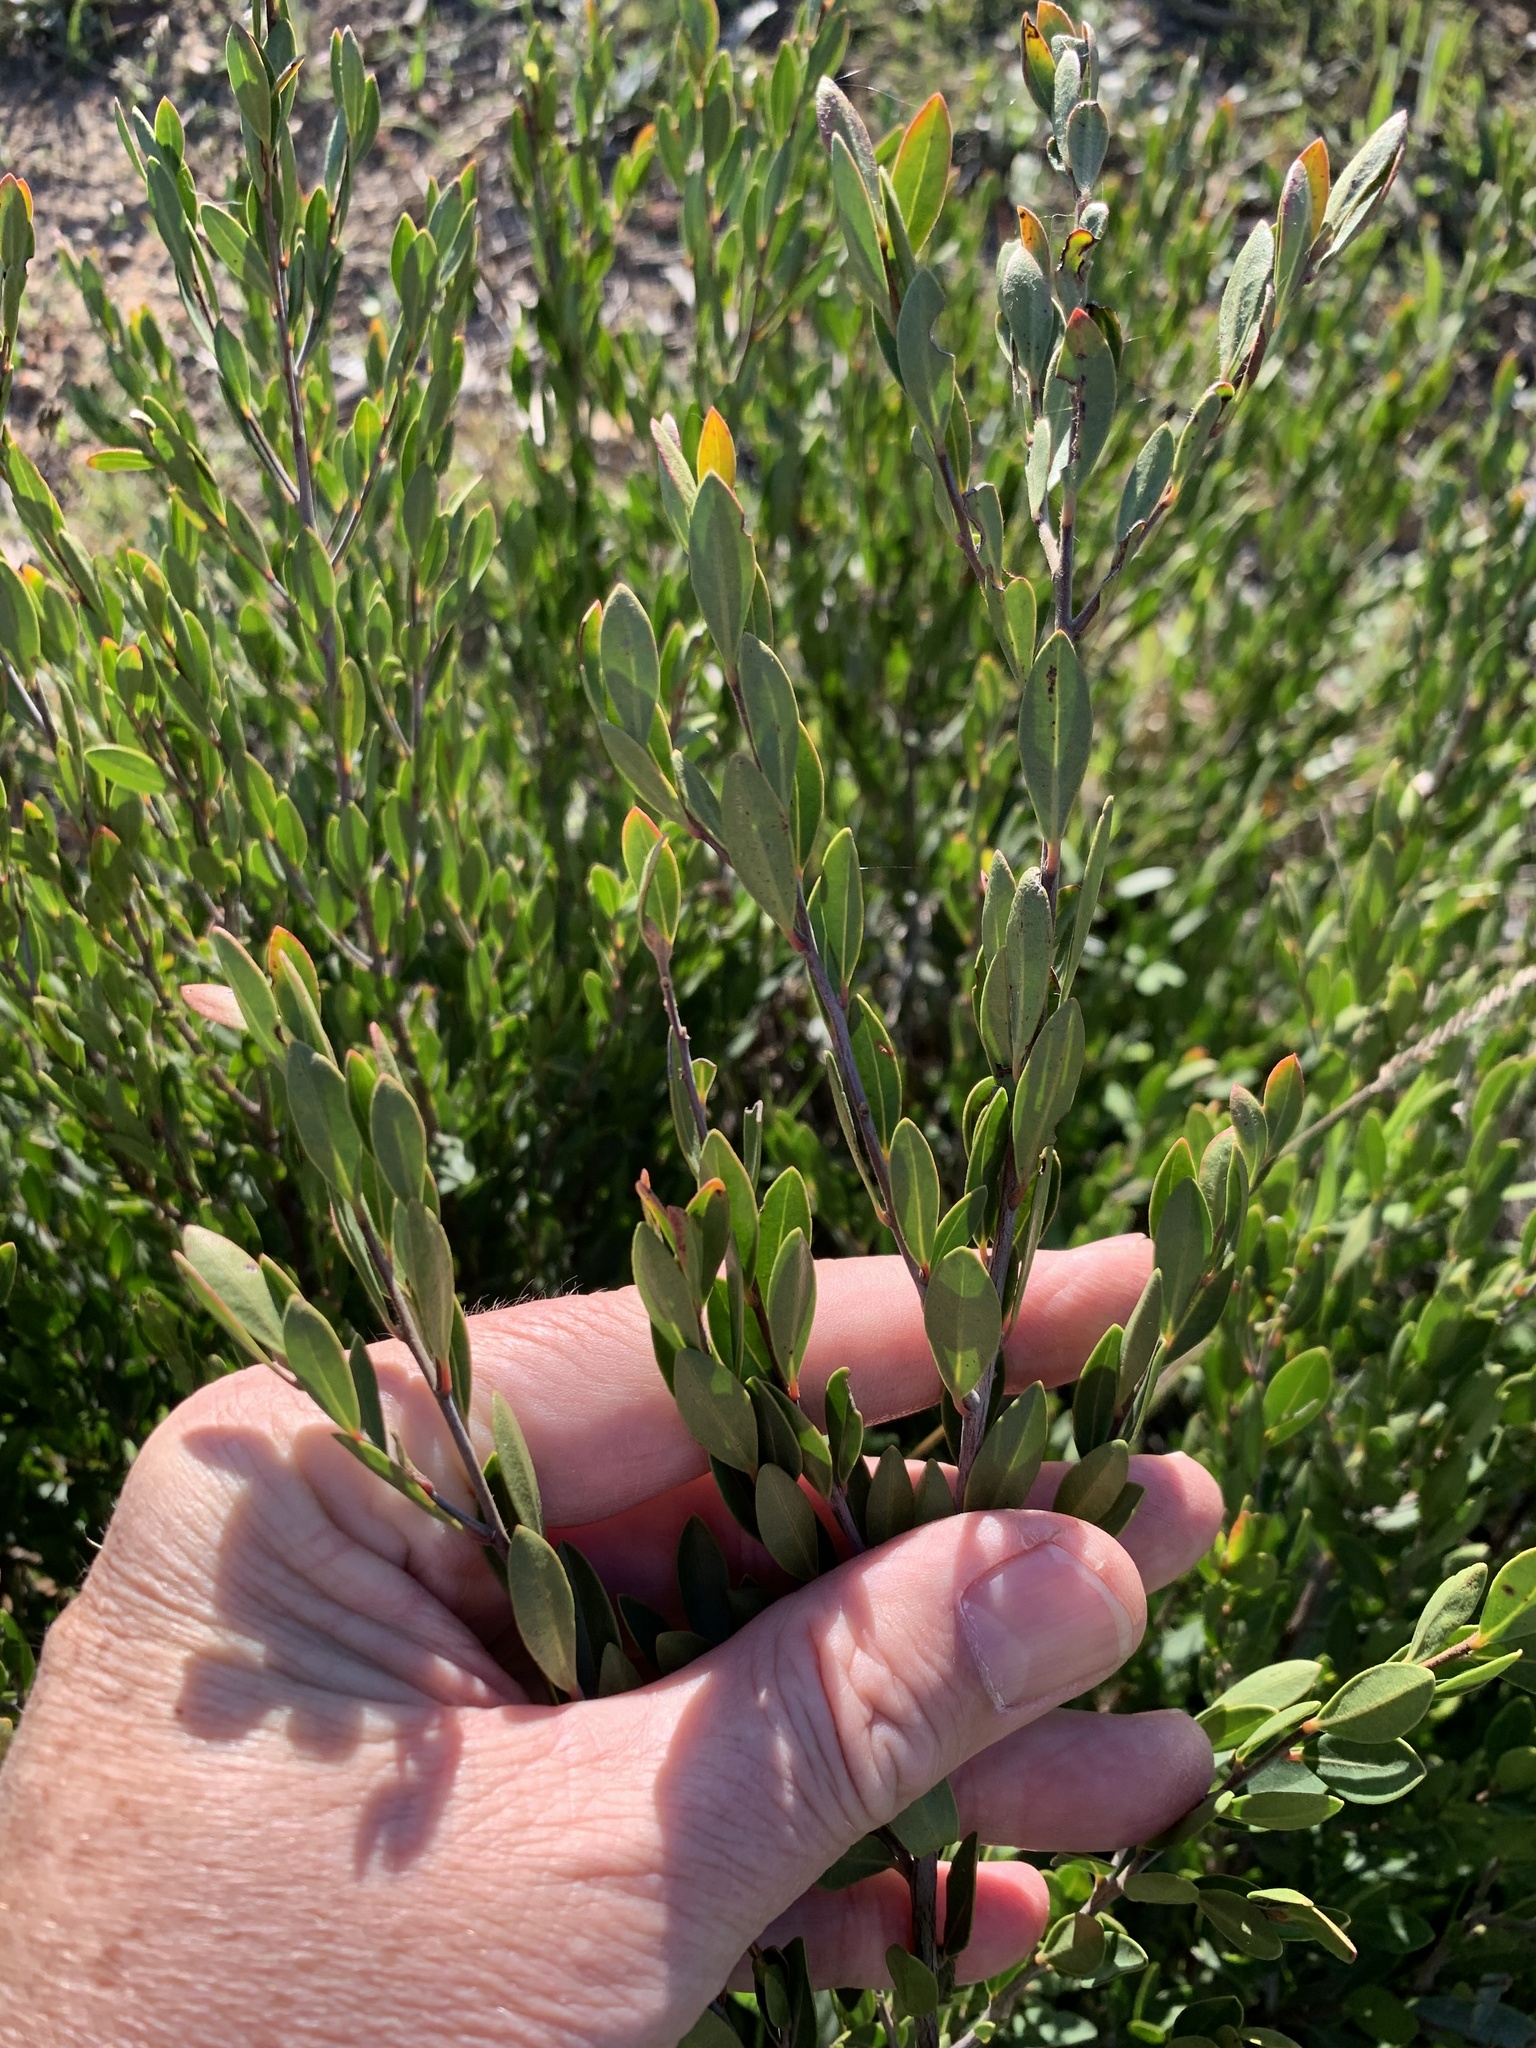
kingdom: Plantae
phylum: Tracheophyta
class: Magnoliopsida
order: Ericales
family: Ebenaceae
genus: Diospyros
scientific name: Diospyros glabra
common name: Fynbos star apple
